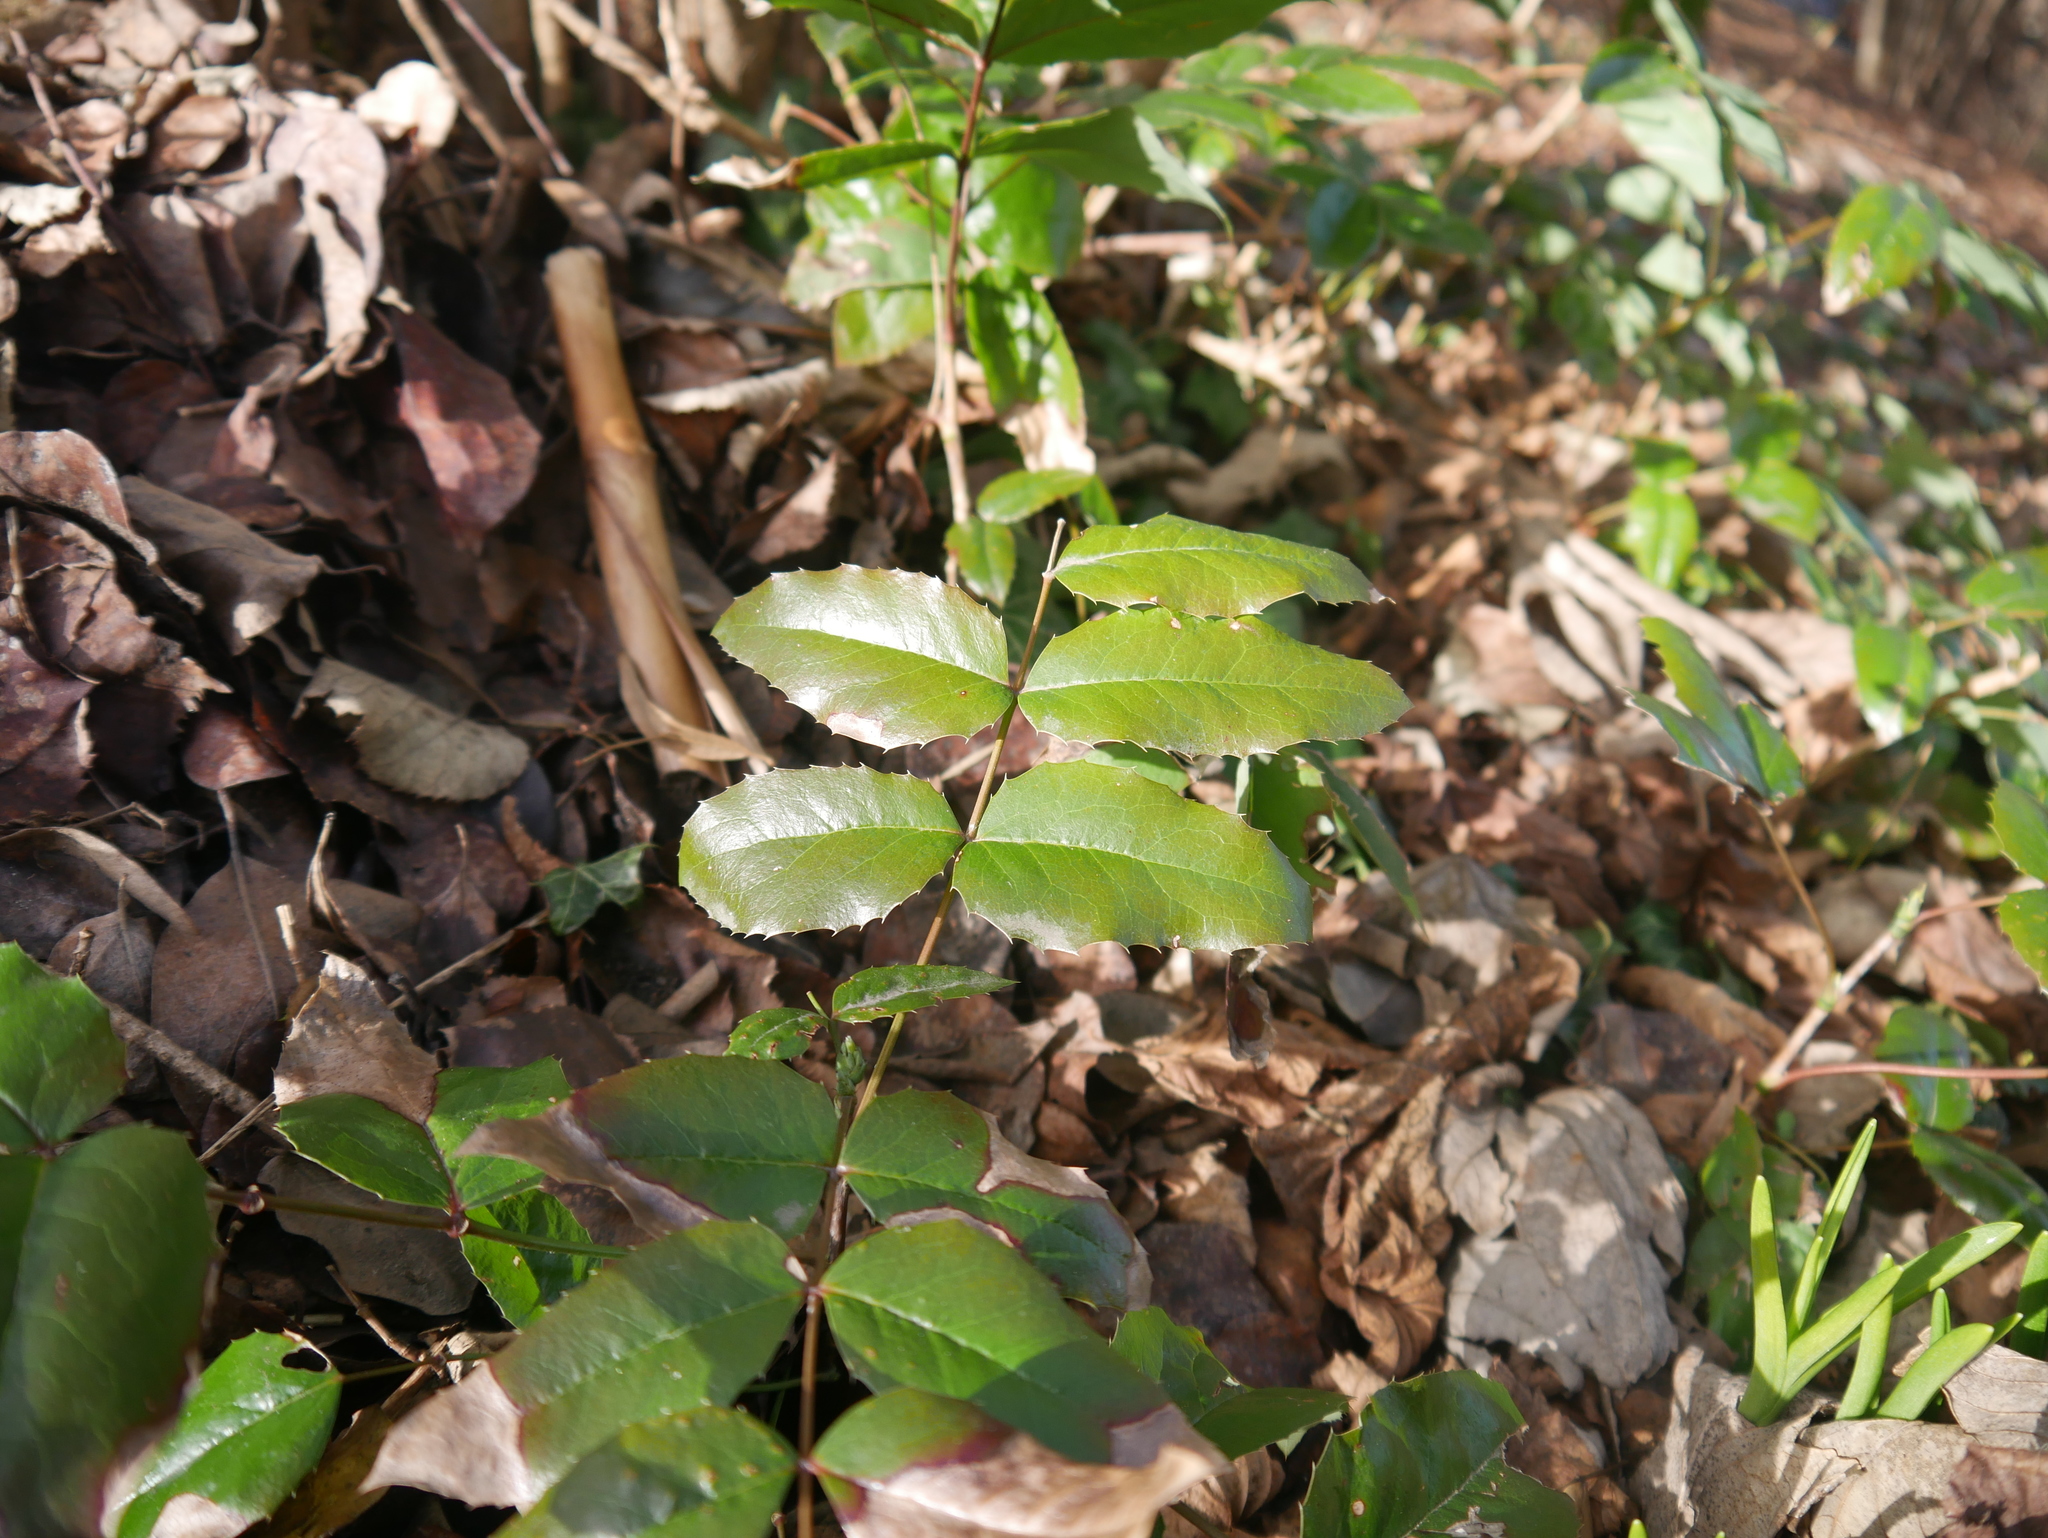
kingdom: Plantae
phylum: Tracheophyta
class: Magnoliopsida
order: Ranunculales
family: Berberidaceae
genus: Mahonia
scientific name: Mahonia aquifolium
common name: Oregon-grape
